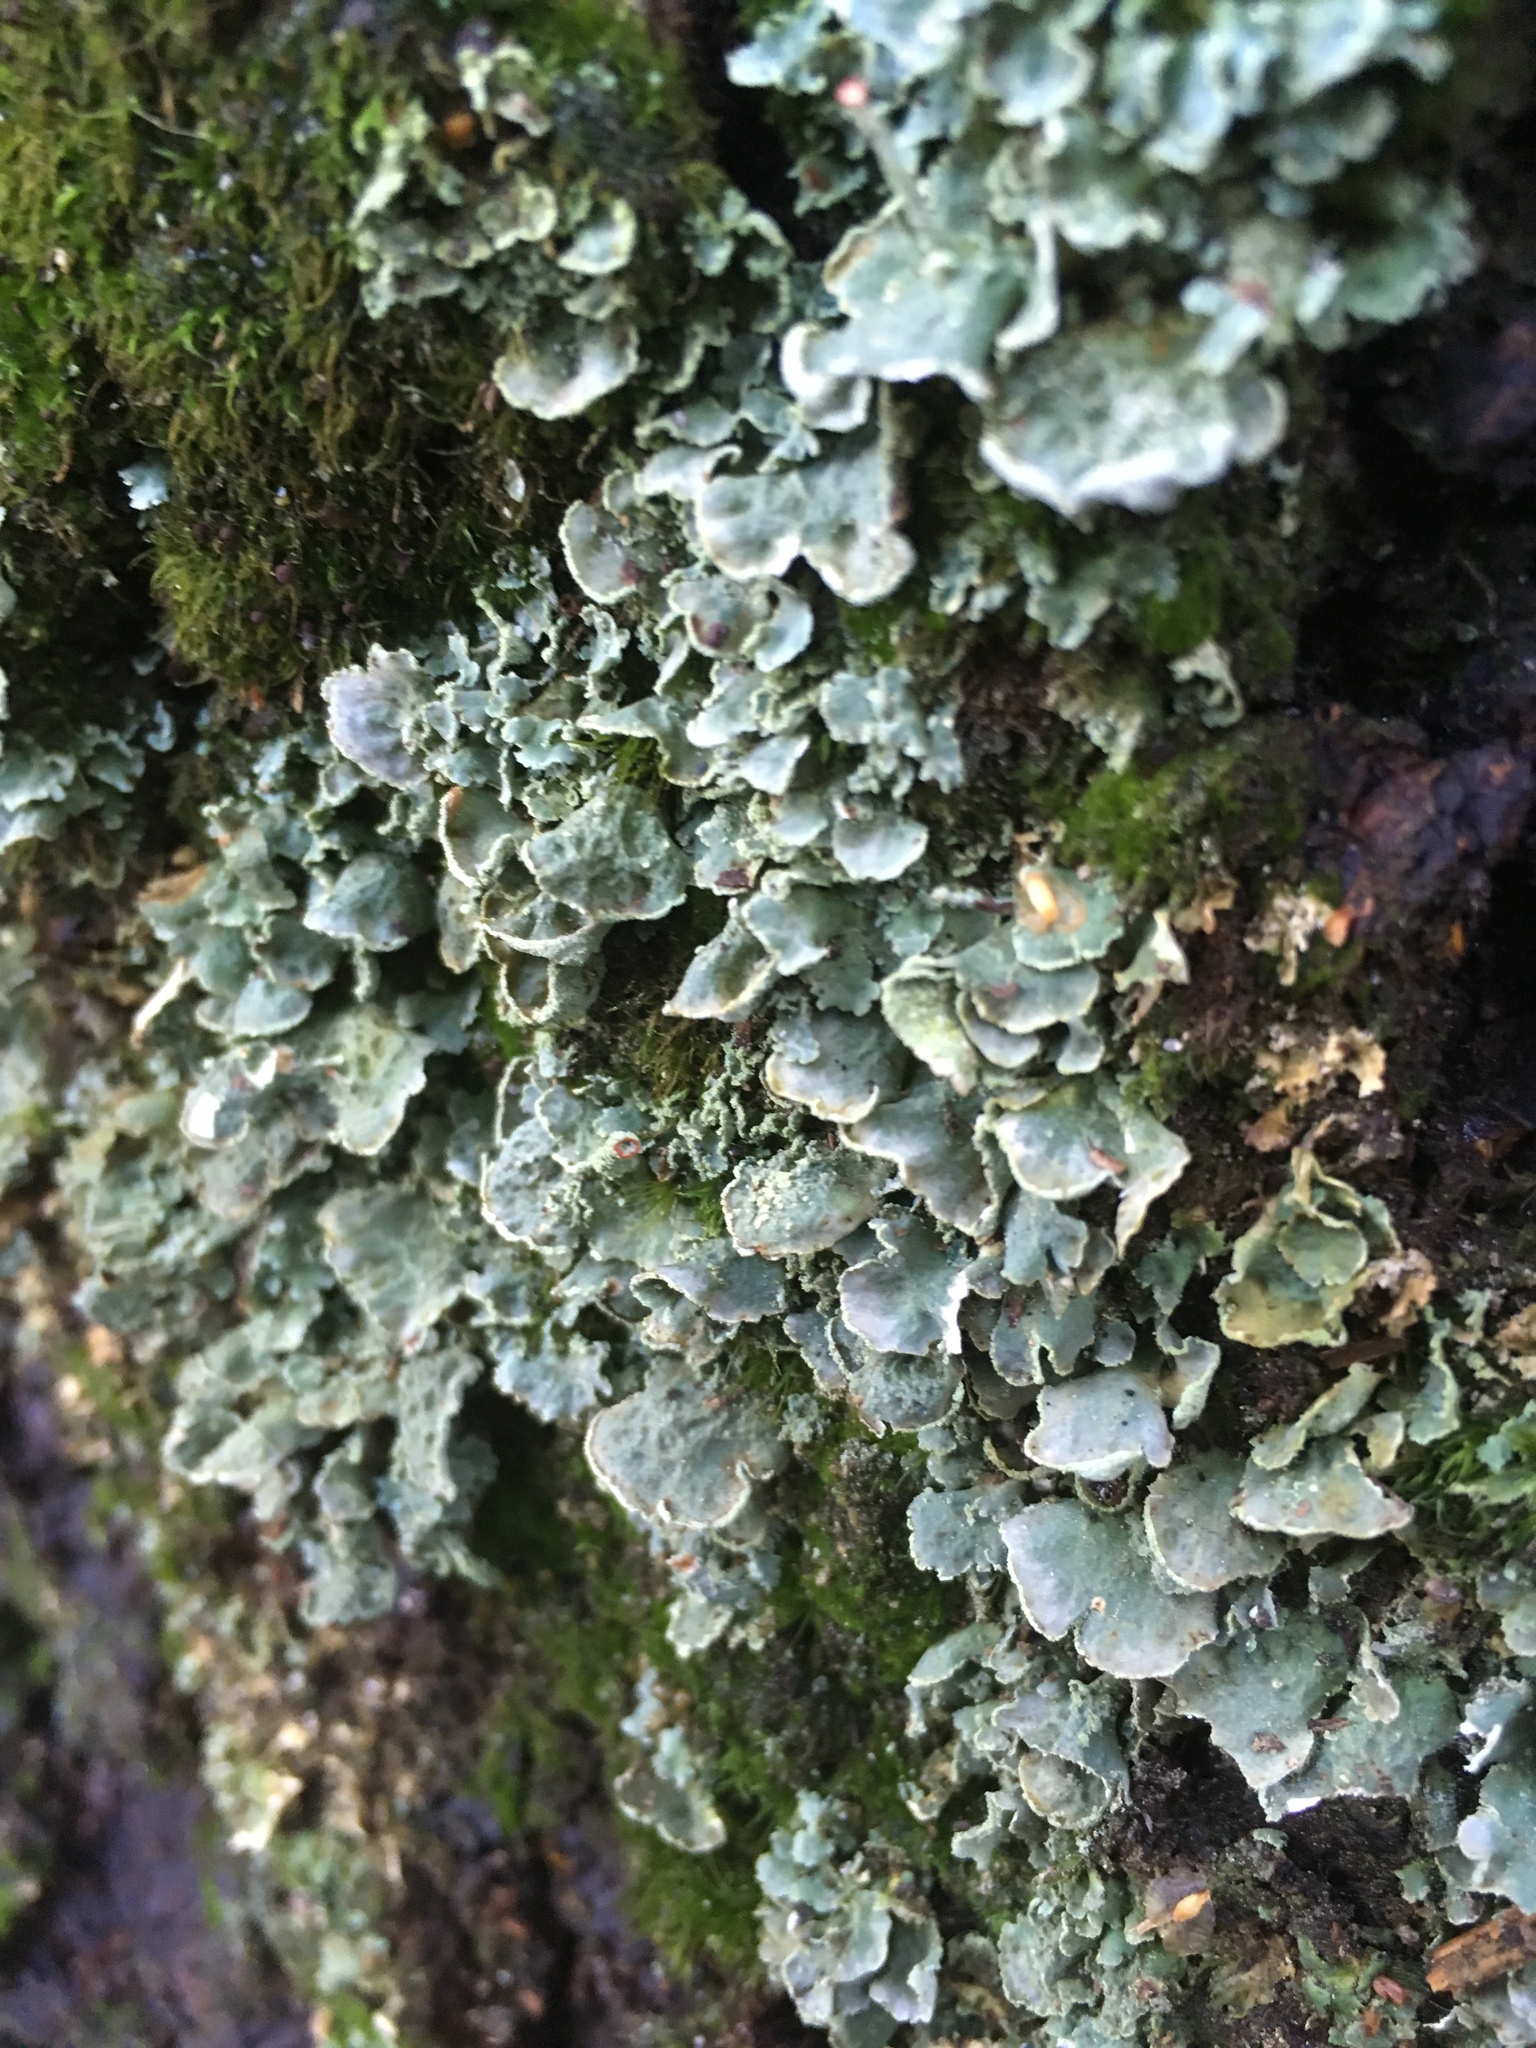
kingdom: Fungi
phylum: Ascomycota
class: Lecanoromycetes
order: Lecanorales
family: Cladoniaceae
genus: Cladonia
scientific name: Cladonia digitata
